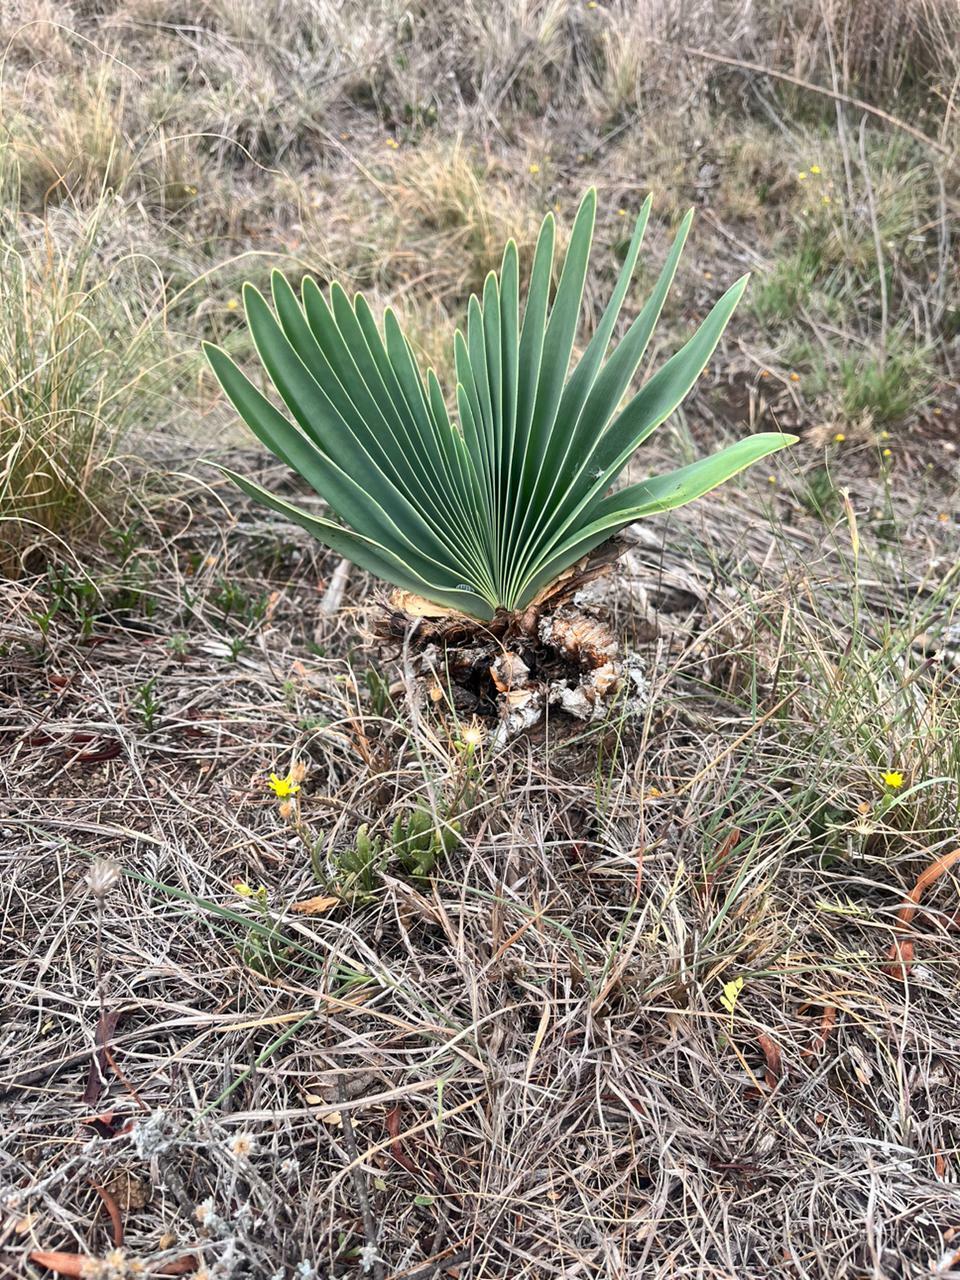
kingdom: Plantae
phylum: Tracheophyta
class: Liliopsida
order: Asparagales
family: Amaryllidaceae
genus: Boophone
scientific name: Boophone disticha
